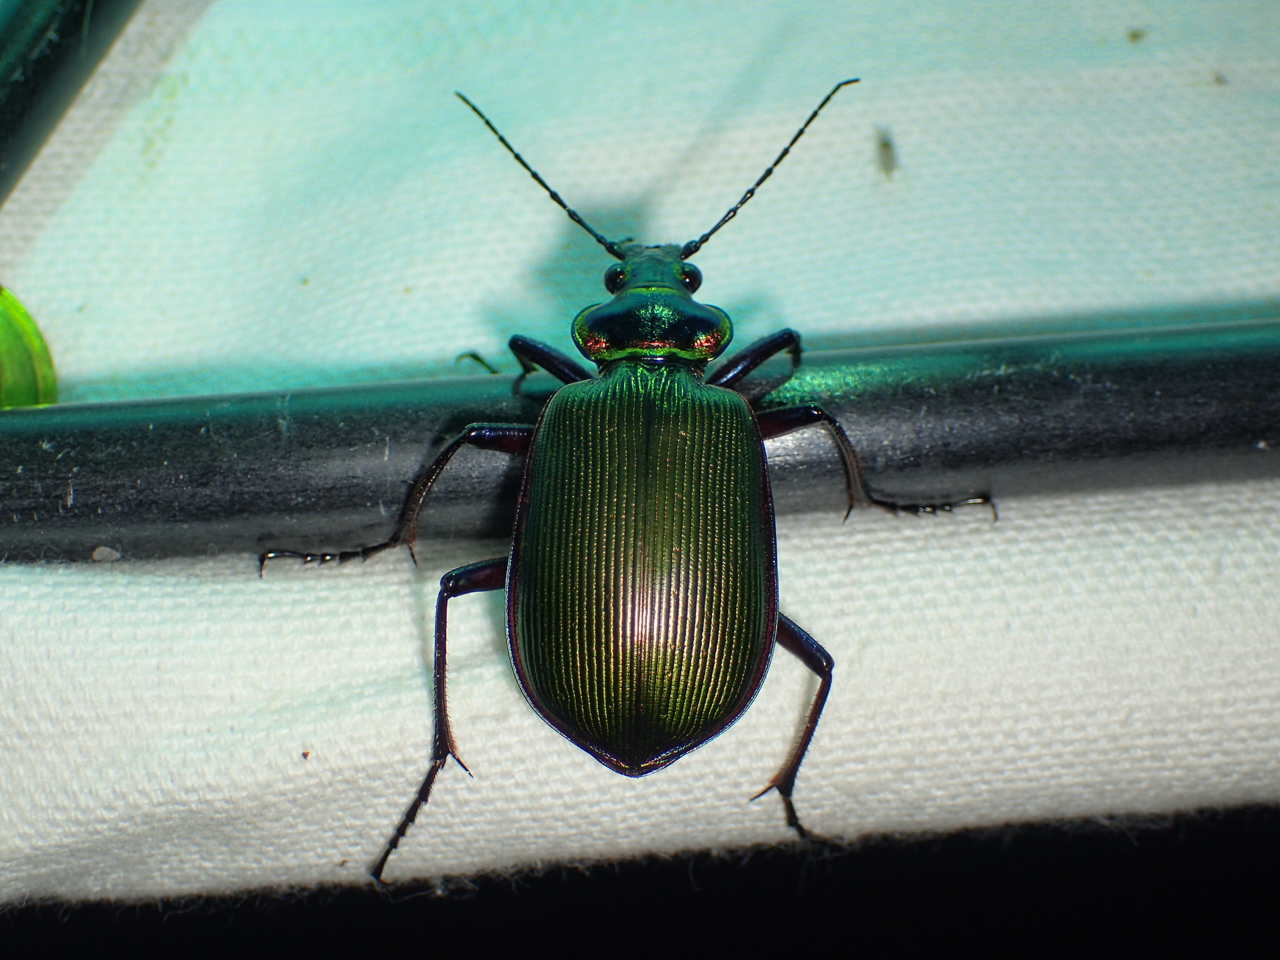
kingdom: Animalia
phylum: Arthropoda
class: Insecta
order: Coleoptera
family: Carabidae
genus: Calosoma
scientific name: Calosoma scrutator
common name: Fiery searcher beetle
